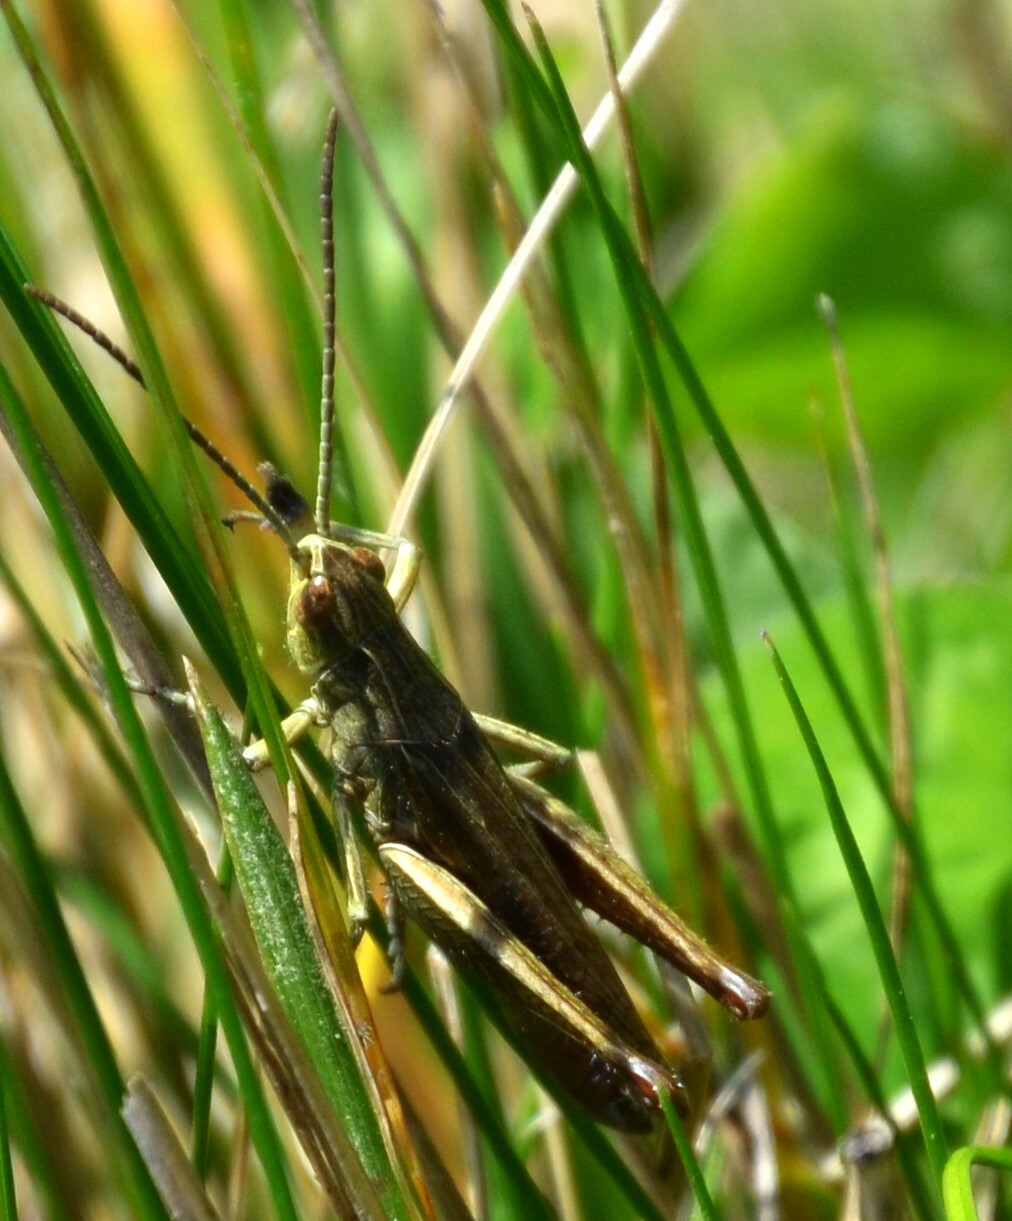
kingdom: Animalia
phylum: Arthropoda
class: Insecta
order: Orthoptera
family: Acrididae
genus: Chorthippus
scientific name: Chorthippus dorsatus
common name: Steppe grasshopper
